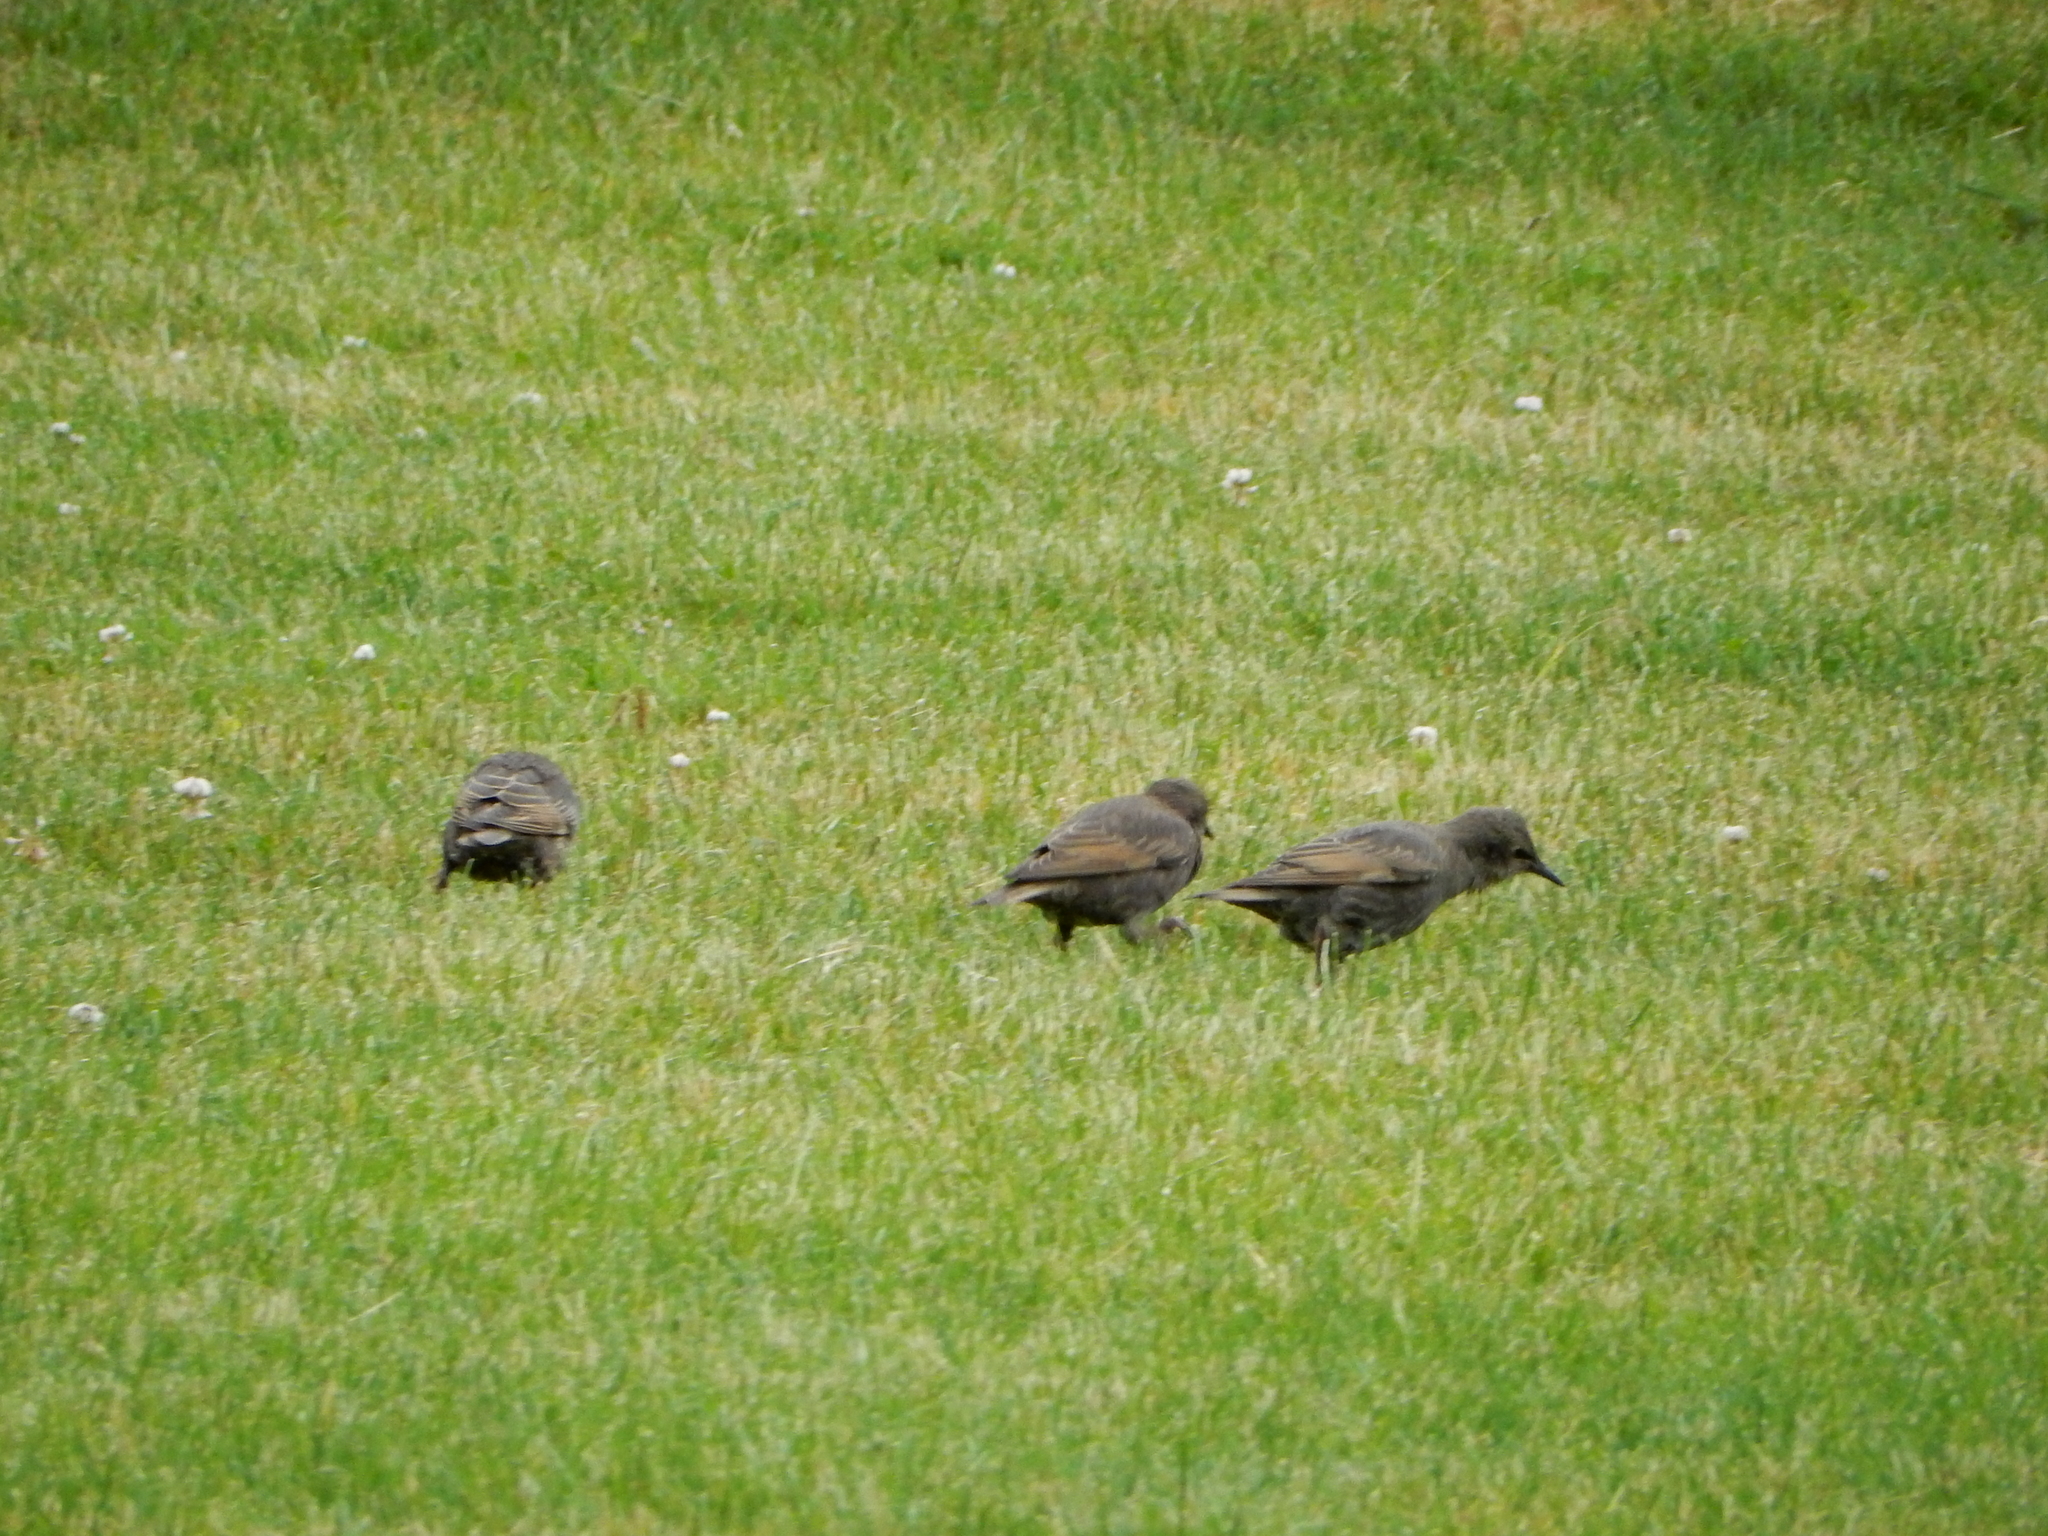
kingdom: Animalia
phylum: Chordata
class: Aves
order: Passeriformes
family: Sturnidae
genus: Sturnus
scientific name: Sturnus vulgaris
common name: Common starling
